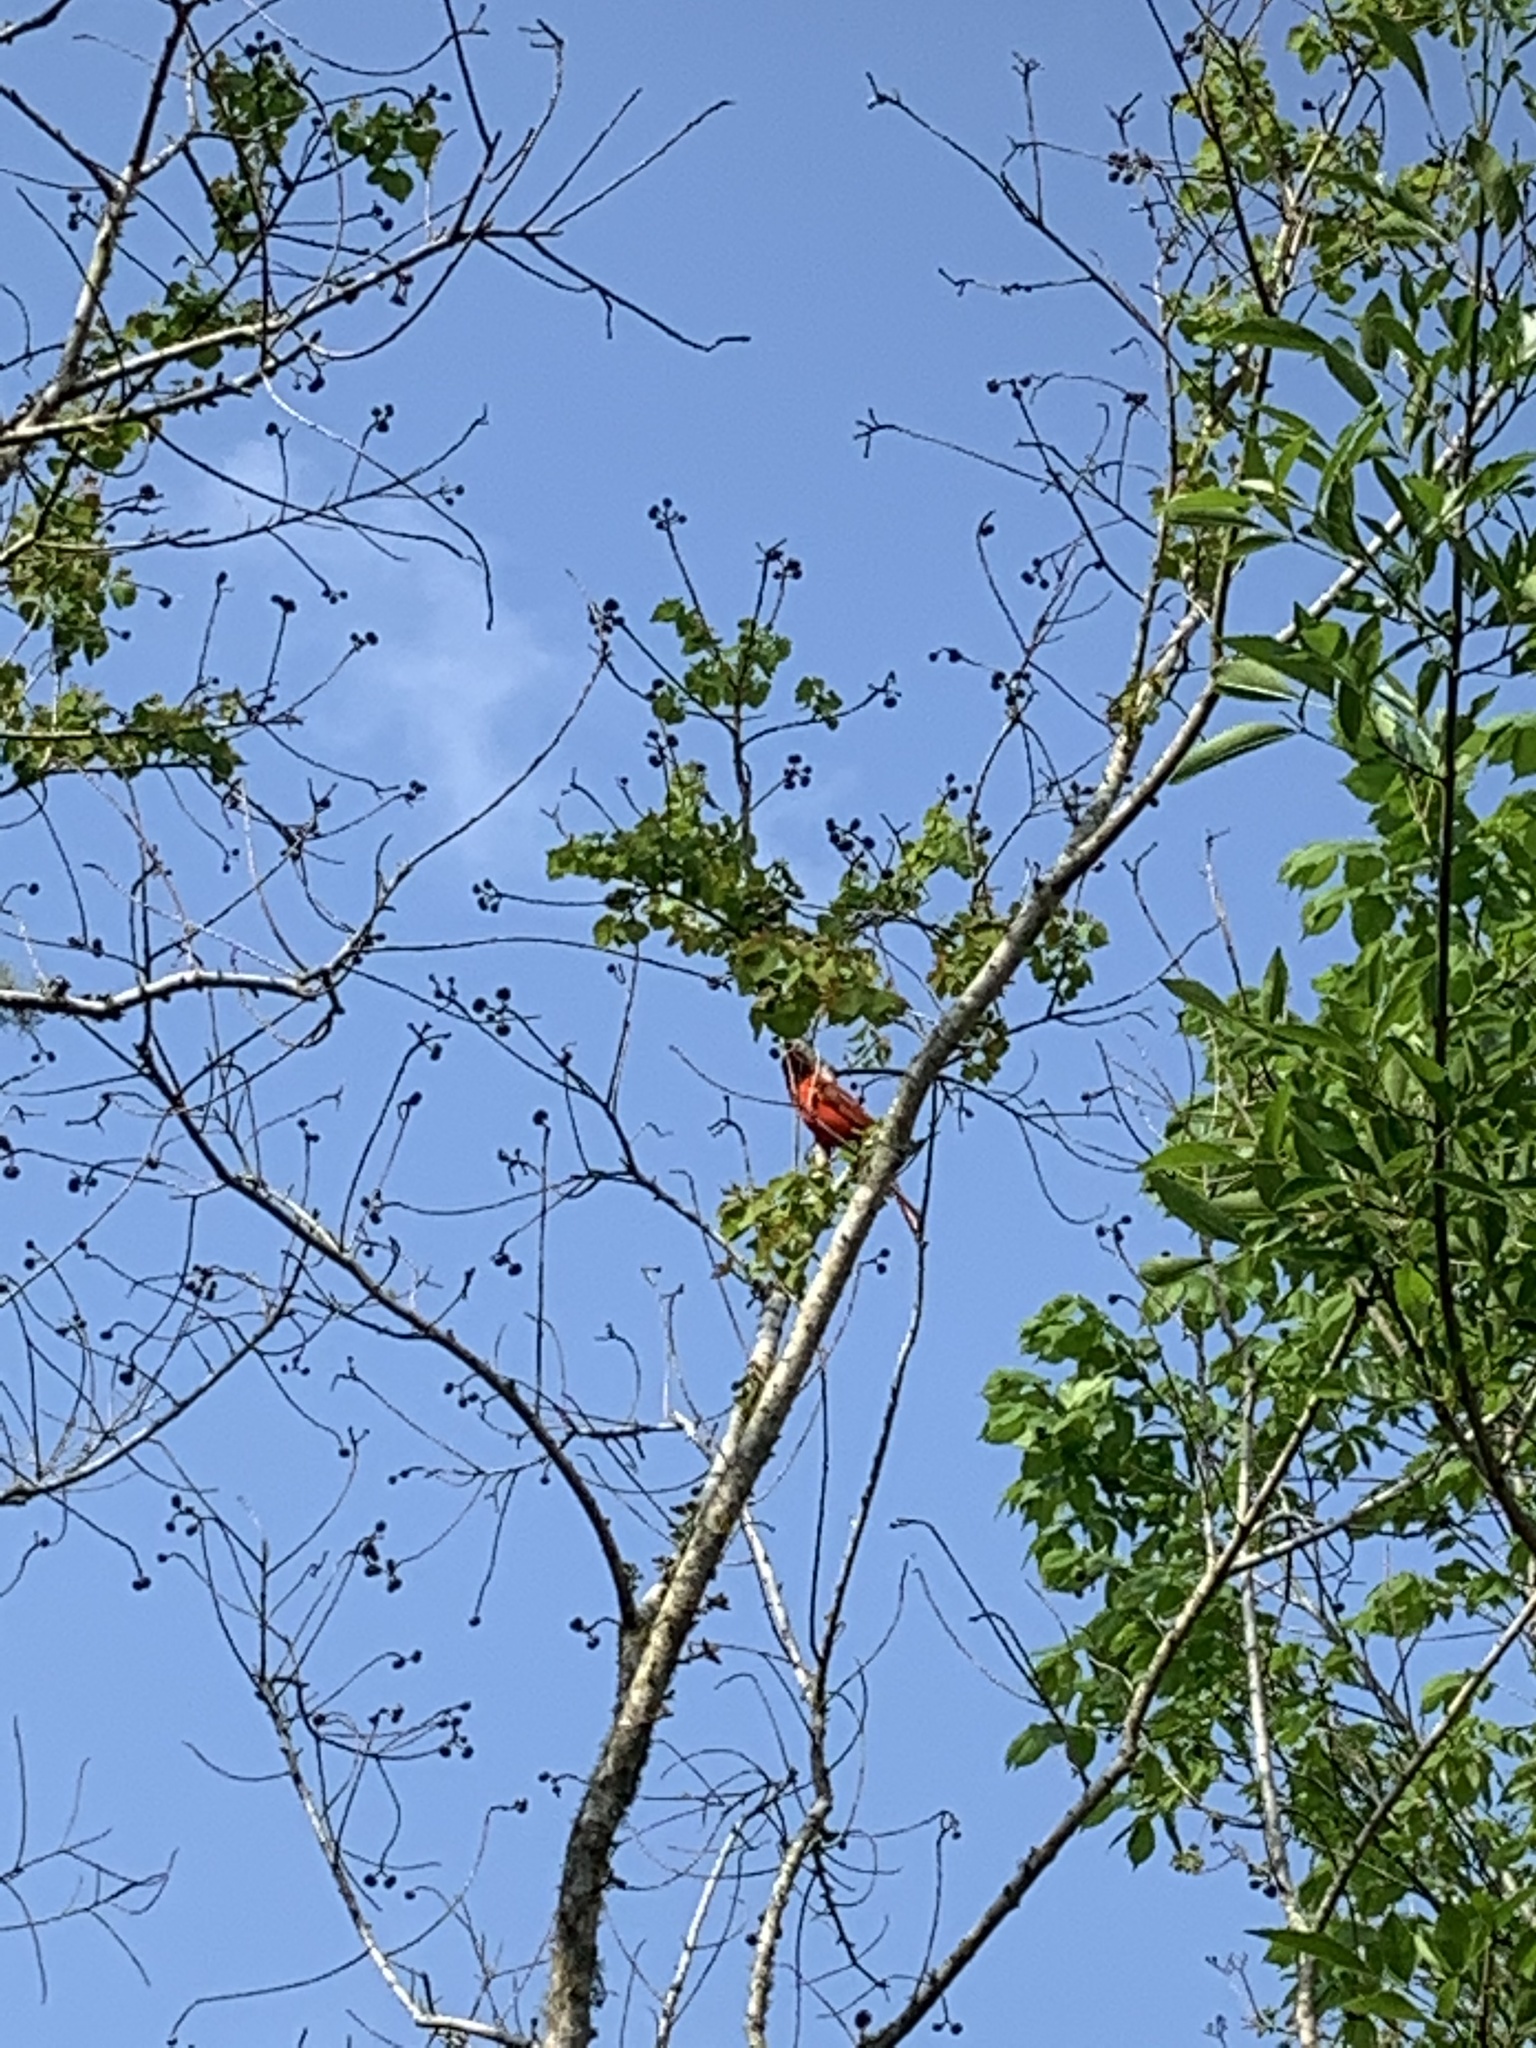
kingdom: Animalia
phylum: Chordata
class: Aves
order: Passeriformes
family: Cardinalidae
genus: Cardinalis
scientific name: Cardinalis cardinalis
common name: Northern cardinal
